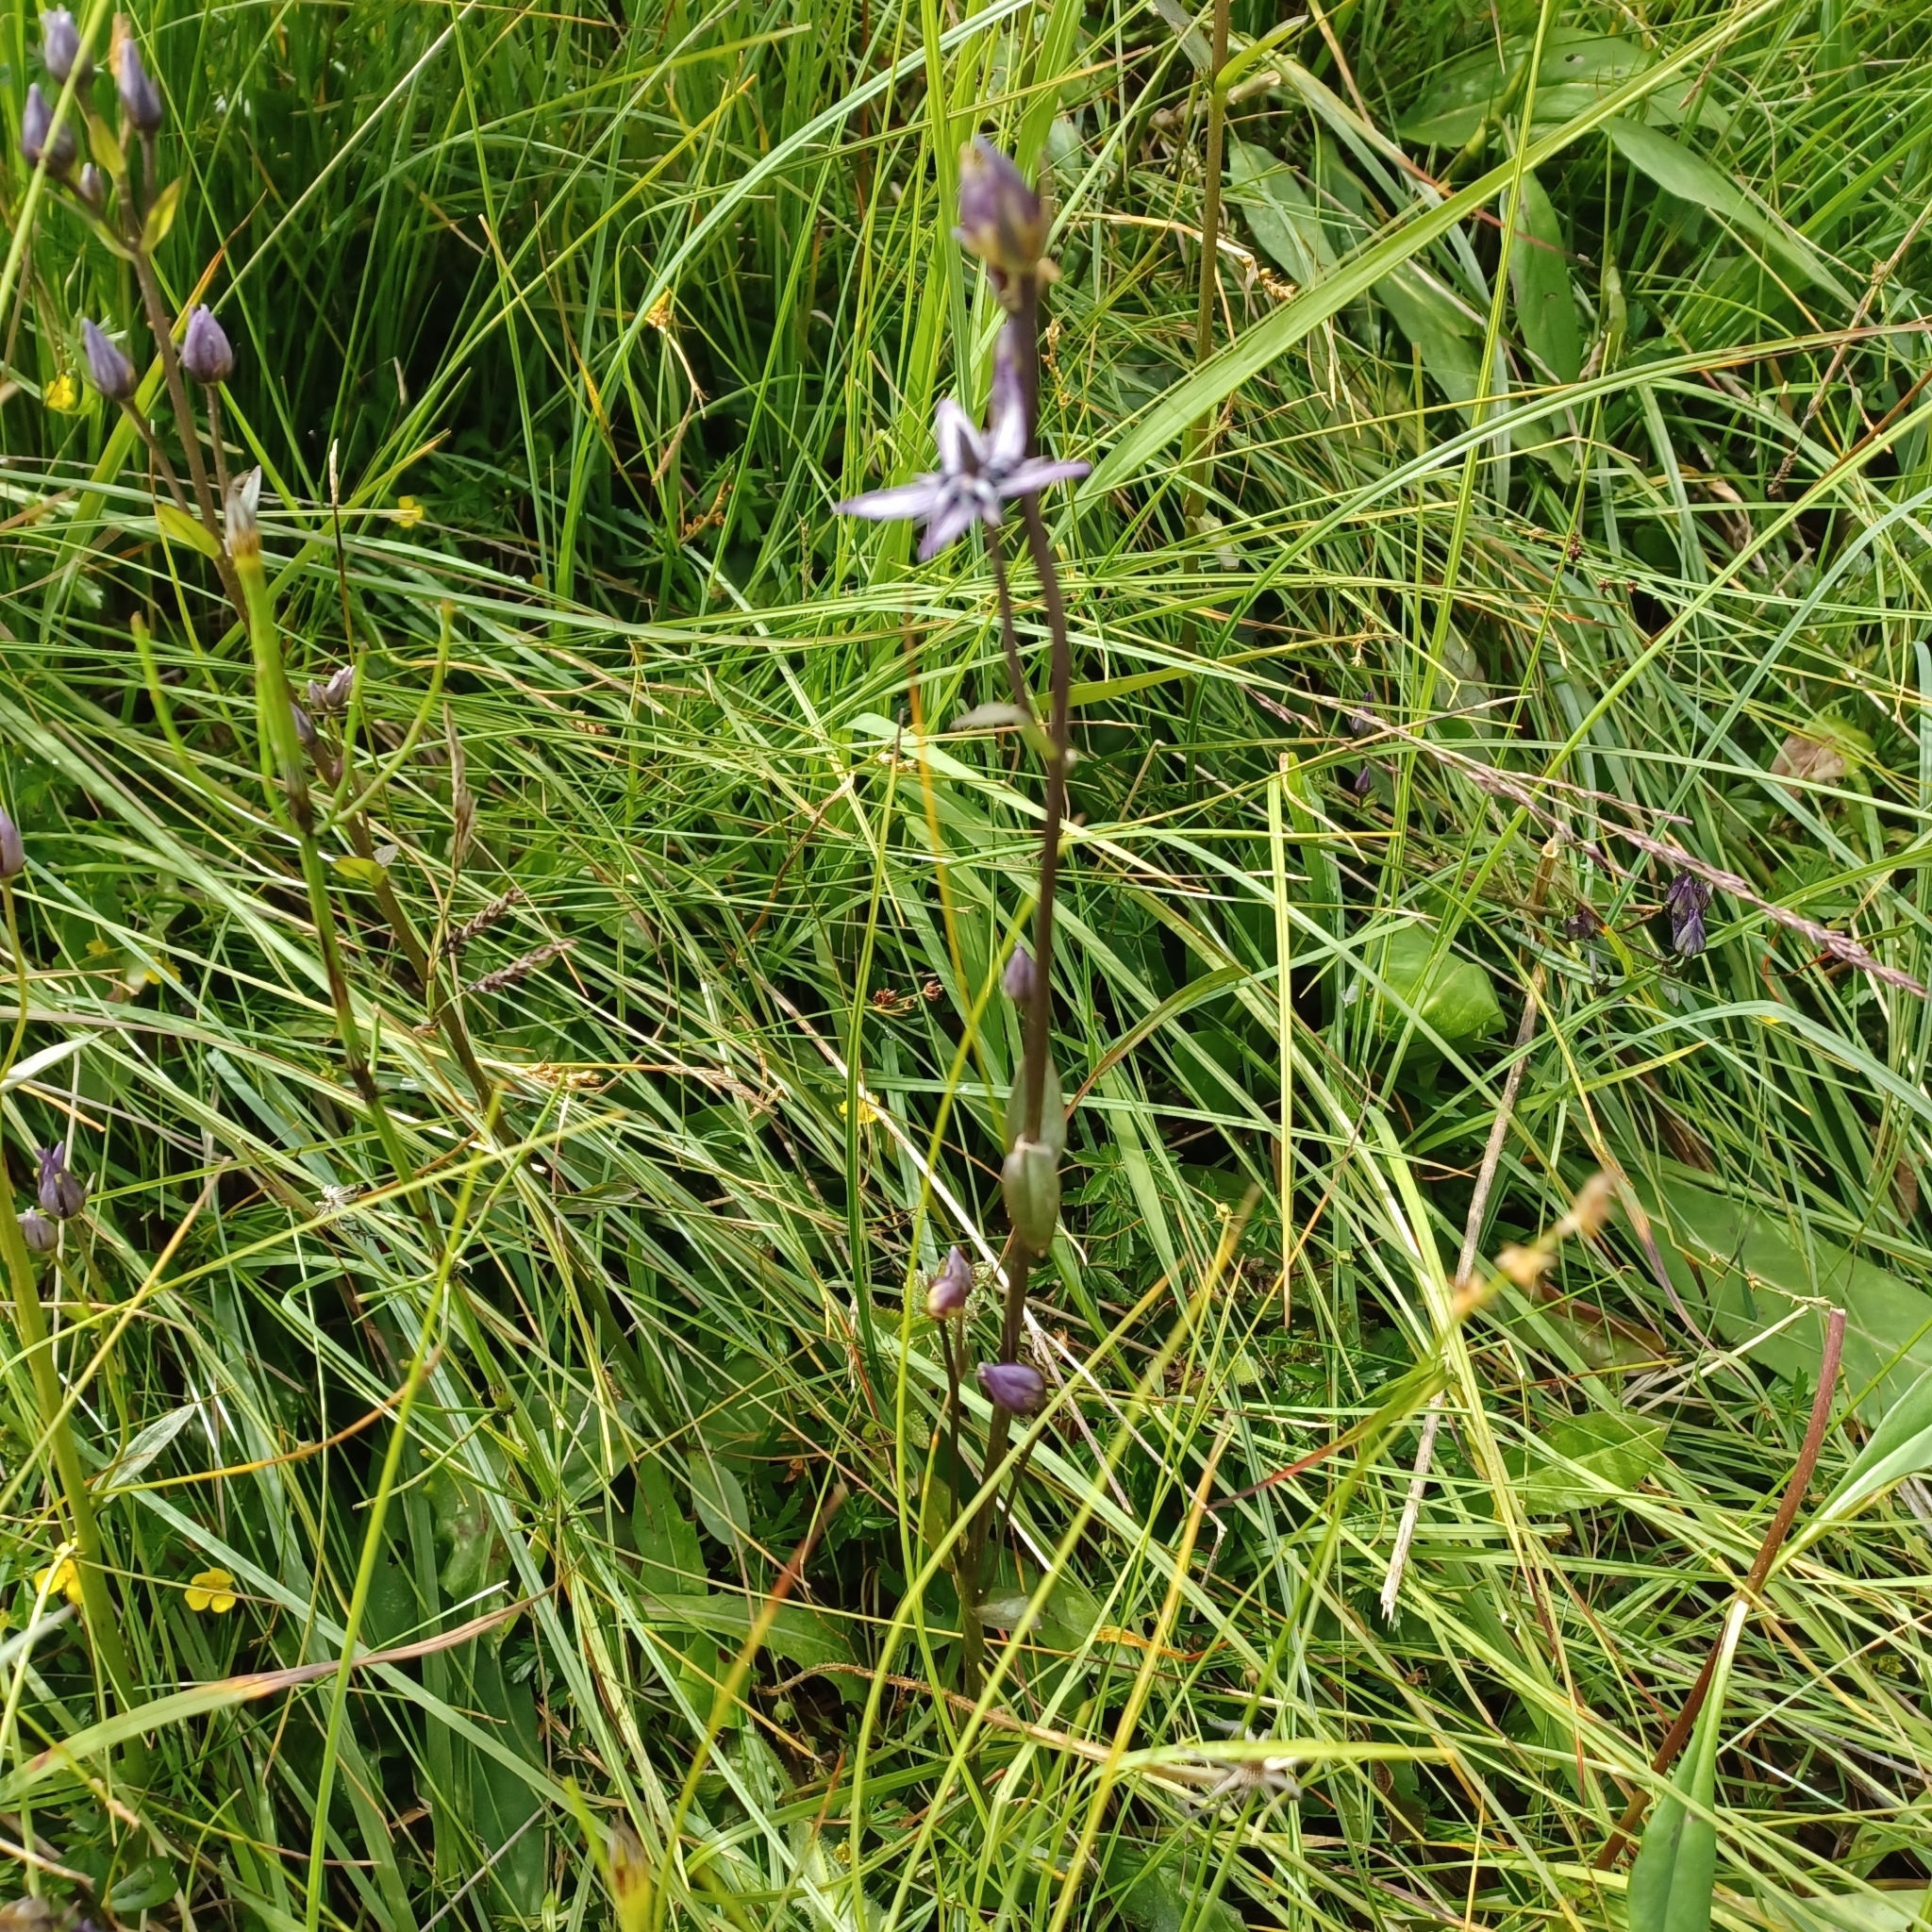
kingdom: Plantae
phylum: Tracheophyta
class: Magnoliopsida
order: Gentianales
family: Gentianaceae
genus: Swertia
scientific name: Swertia perennis
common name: Alpine bog swertia
